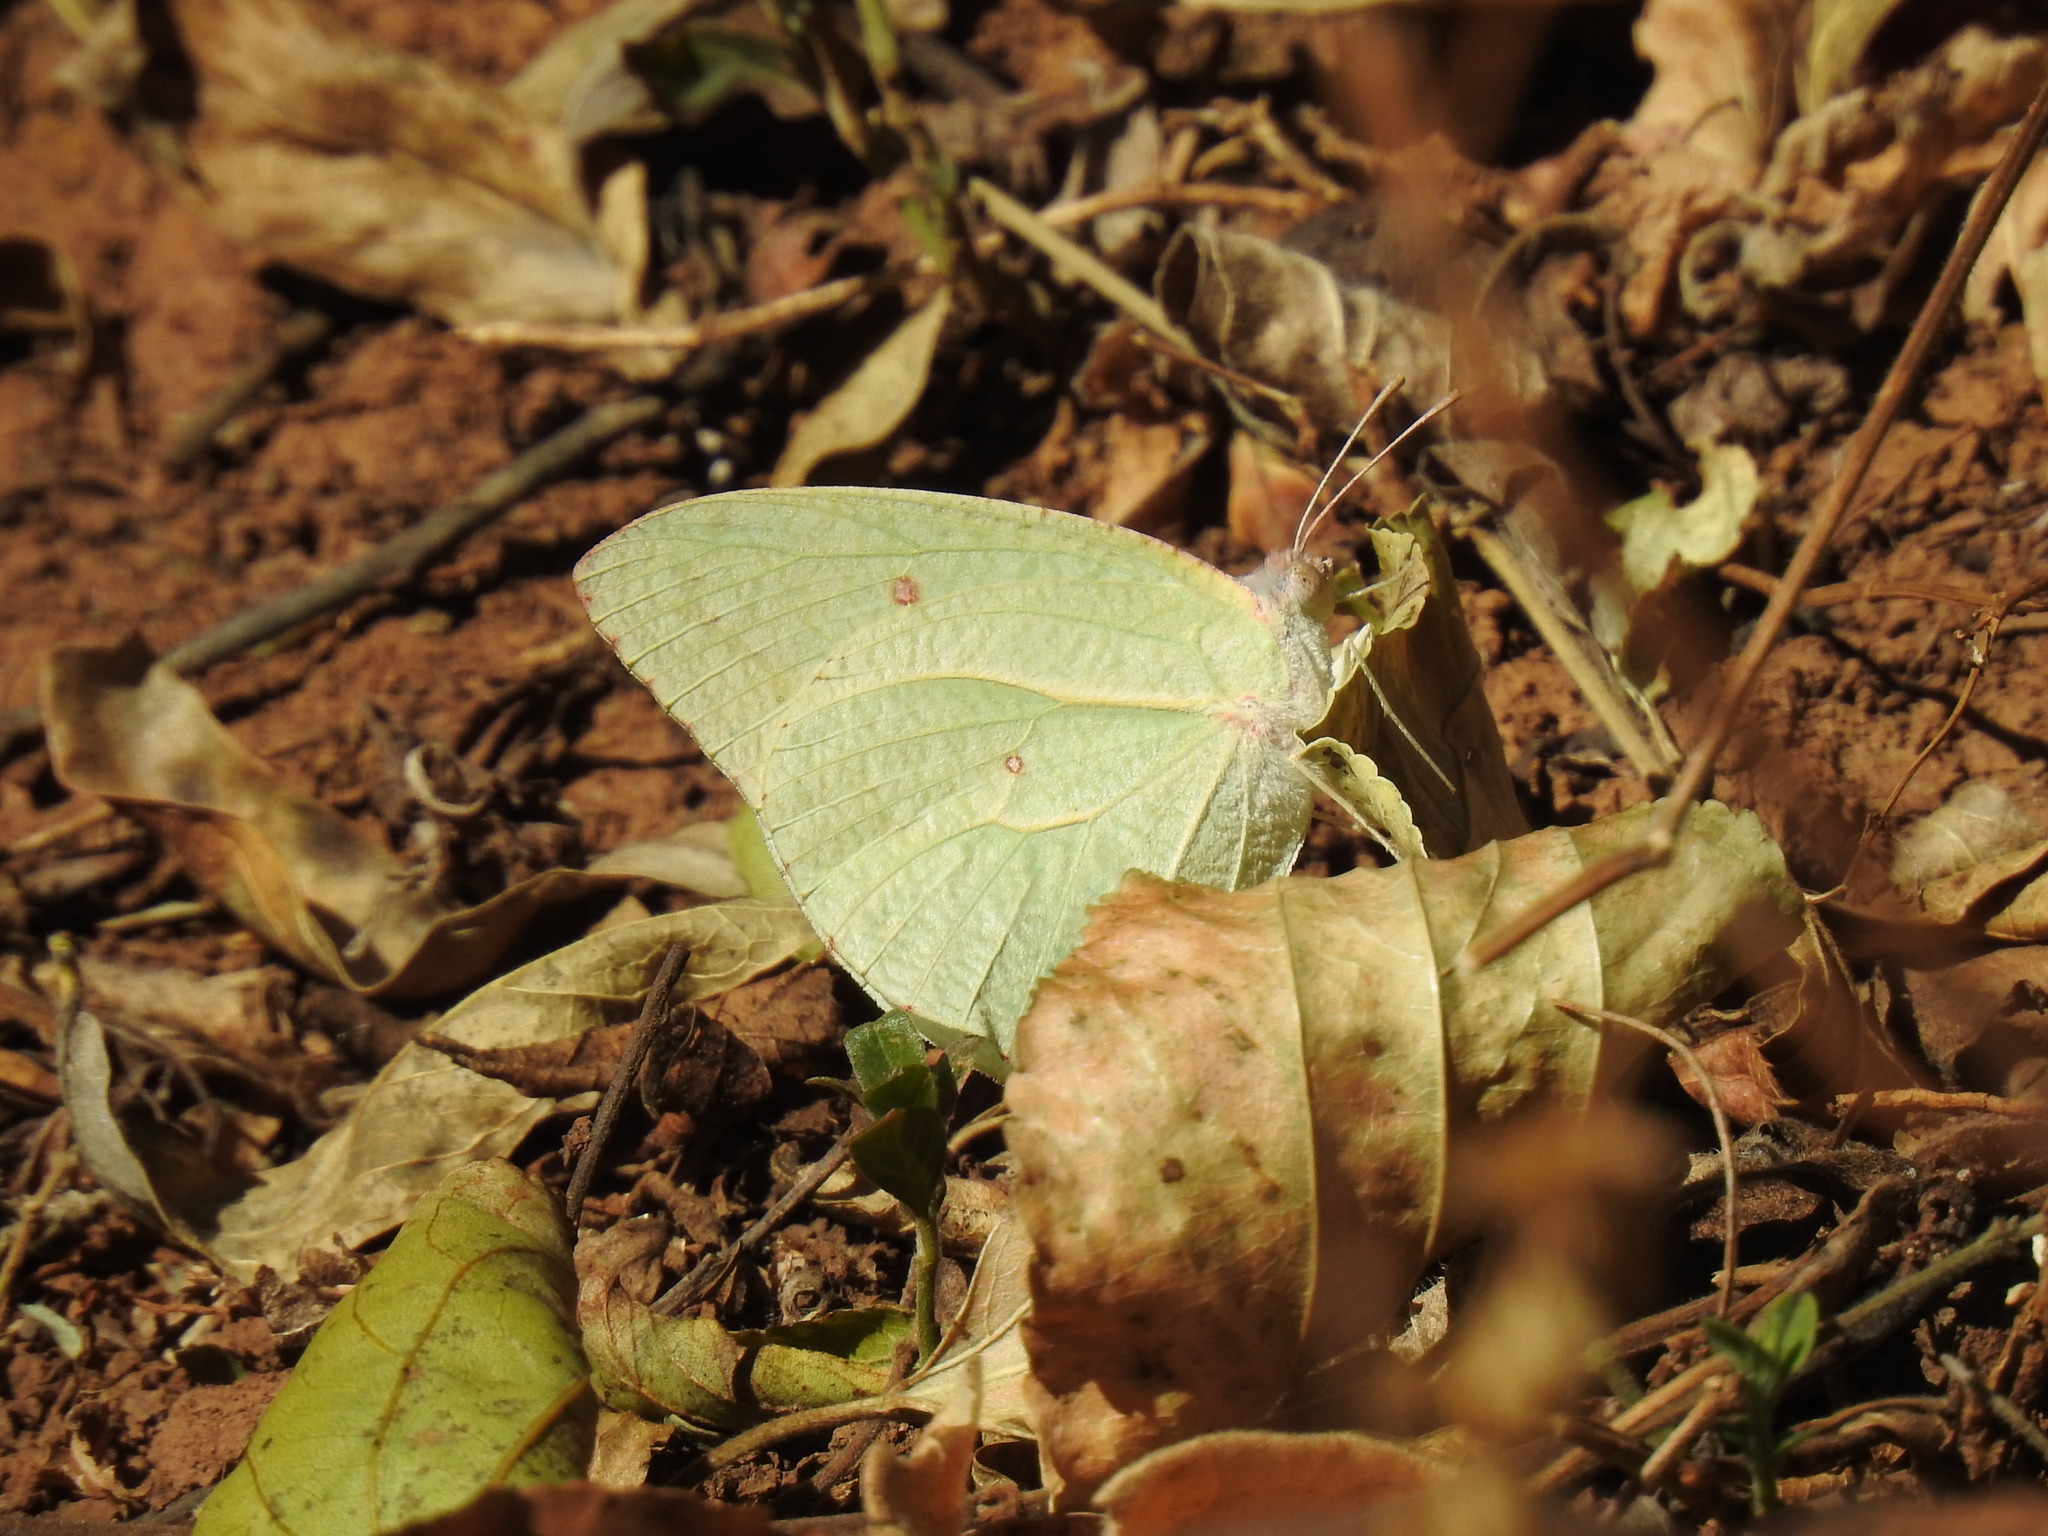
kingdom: Animalia
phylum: Arthropoda
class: Insecta
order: Lepidoptera
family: Pieridae
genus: Catopsilia
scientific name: Catopsilia florella
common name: African migrant
